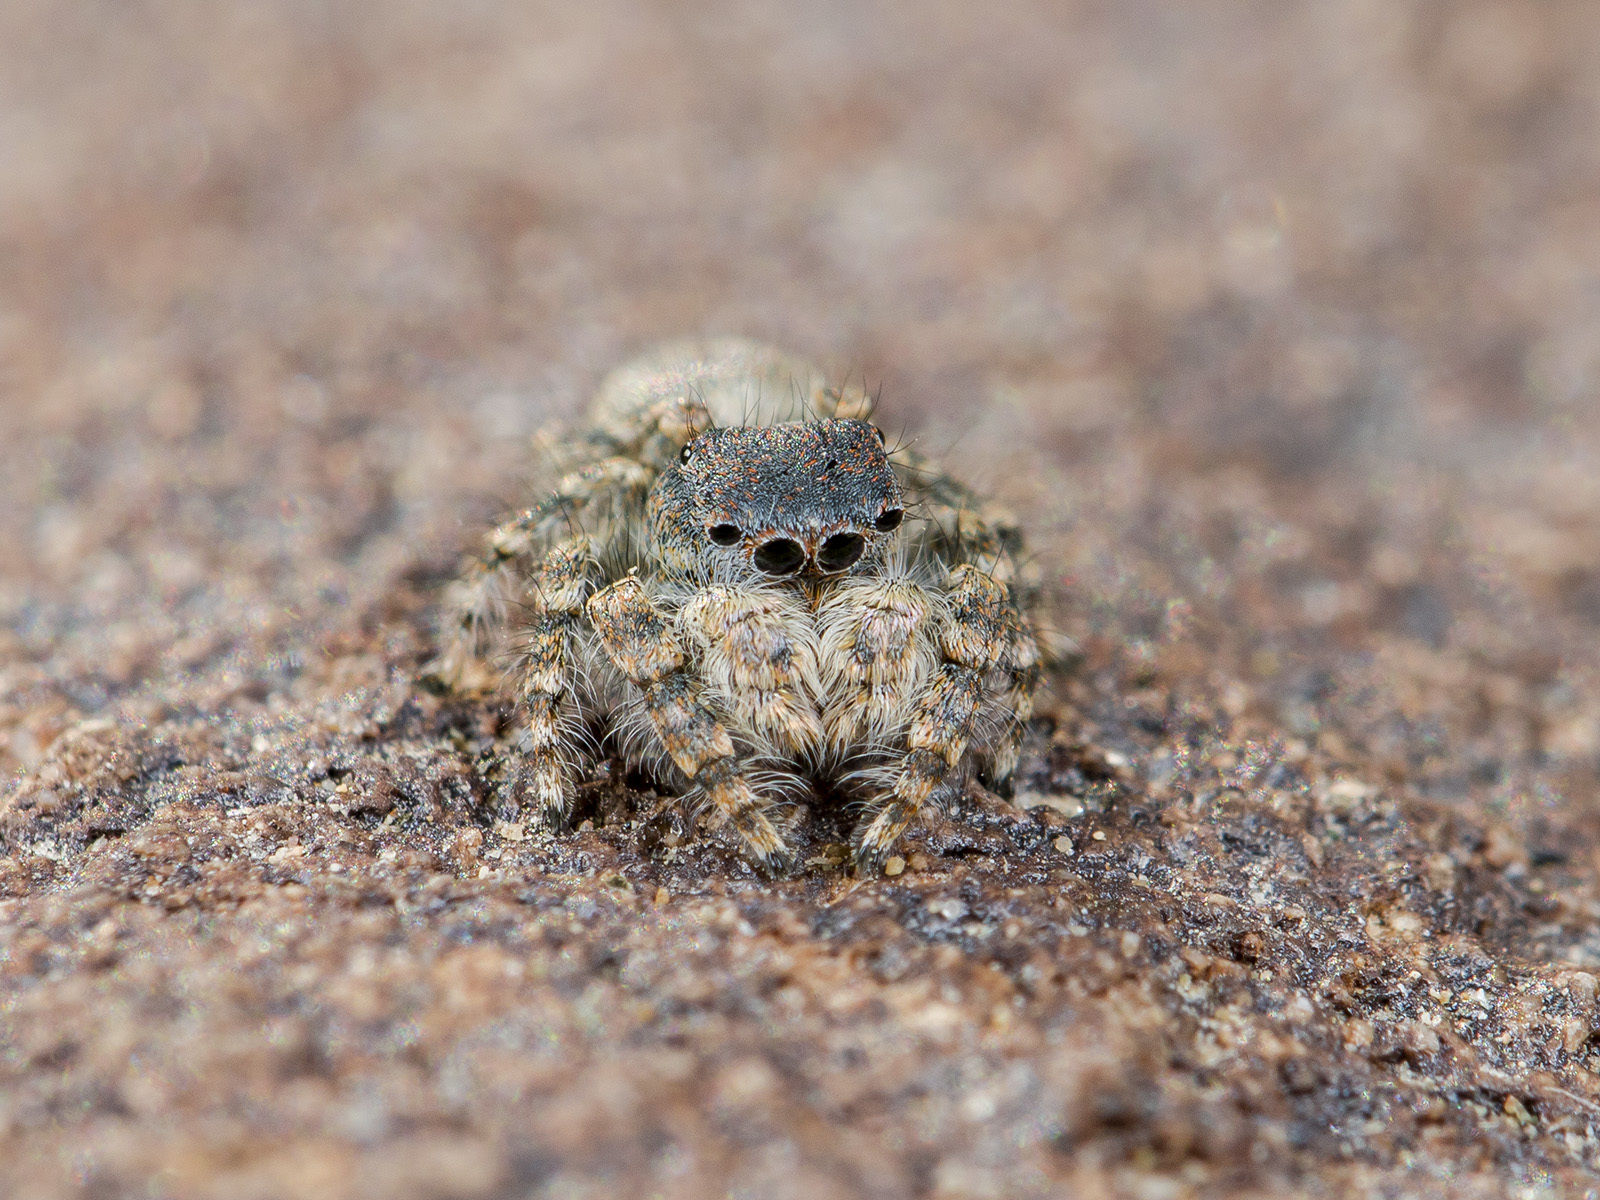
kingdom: Animalia
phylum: Arthropoda
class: Arachnida
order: Araneae
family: Salticidae
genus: Yllenus
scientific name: Yllenus zyuzini
